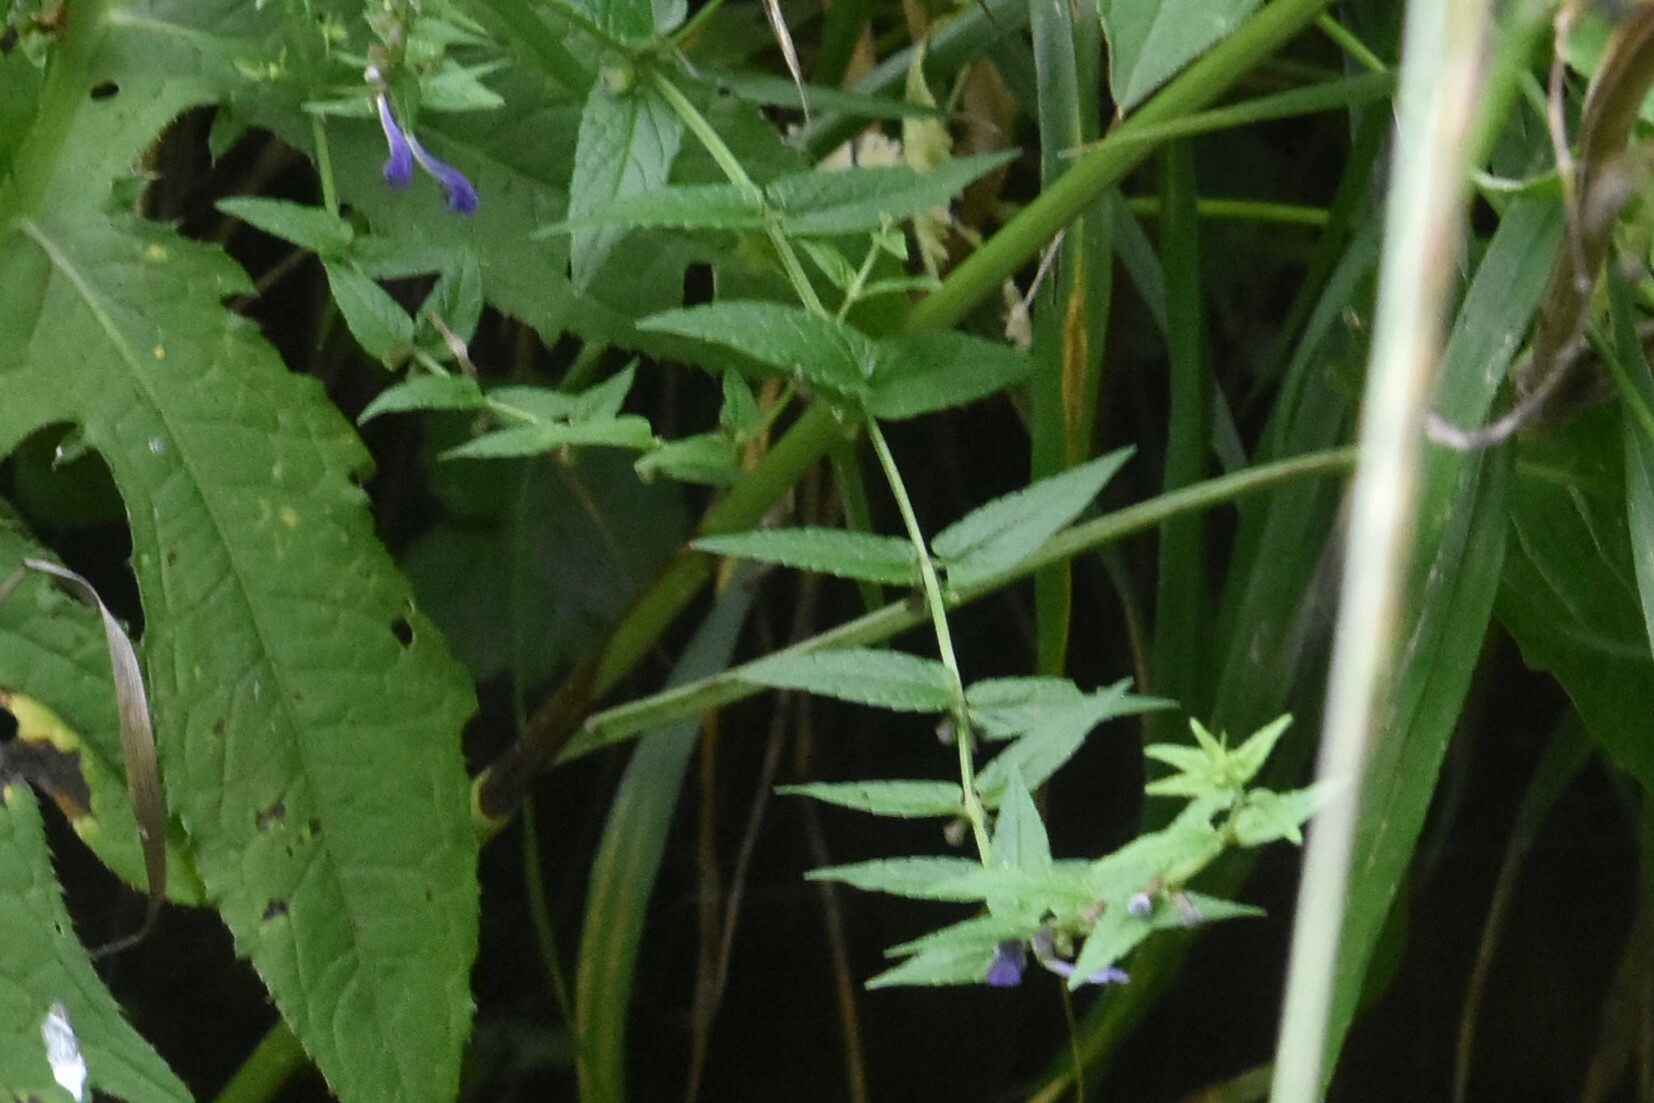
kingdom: Plantae
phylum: Tracheophyta
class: Magnoliopsida
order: Lamiales
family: Lamiaceae
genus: Scutellaria
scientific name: Scutellaria galericulata
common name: Skullcap
